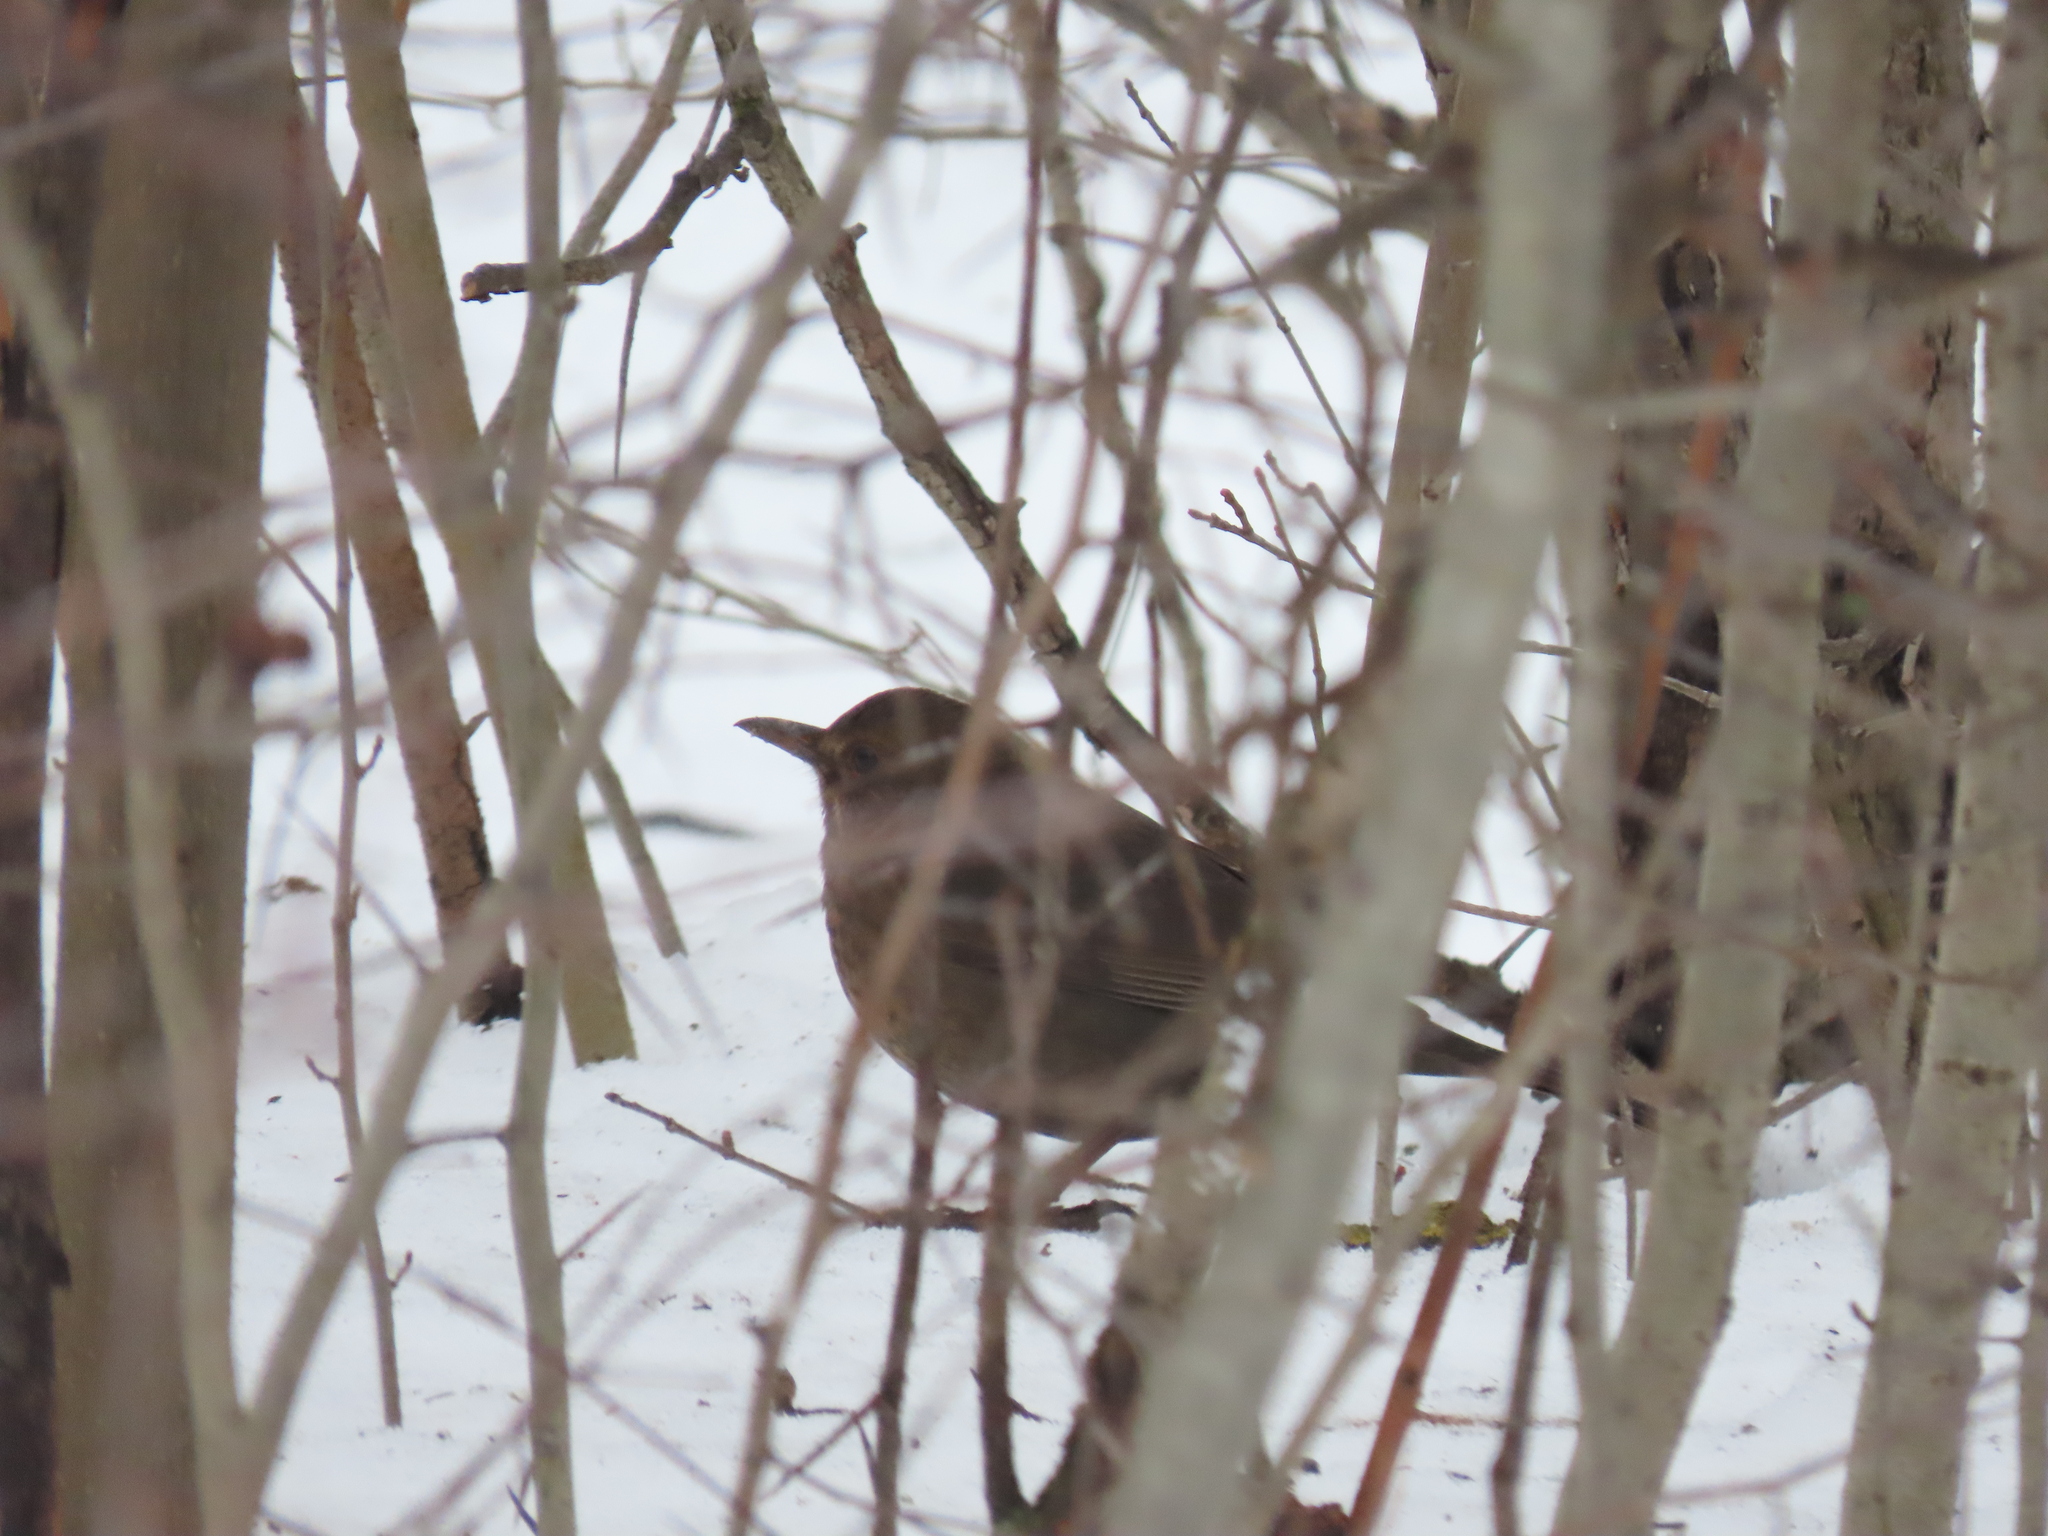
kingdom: Animalia
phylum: Chordata
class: Aves
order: Passeriformes
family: Turdidae
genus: Turdus
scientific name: Turdus merula
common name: Common blackbird
